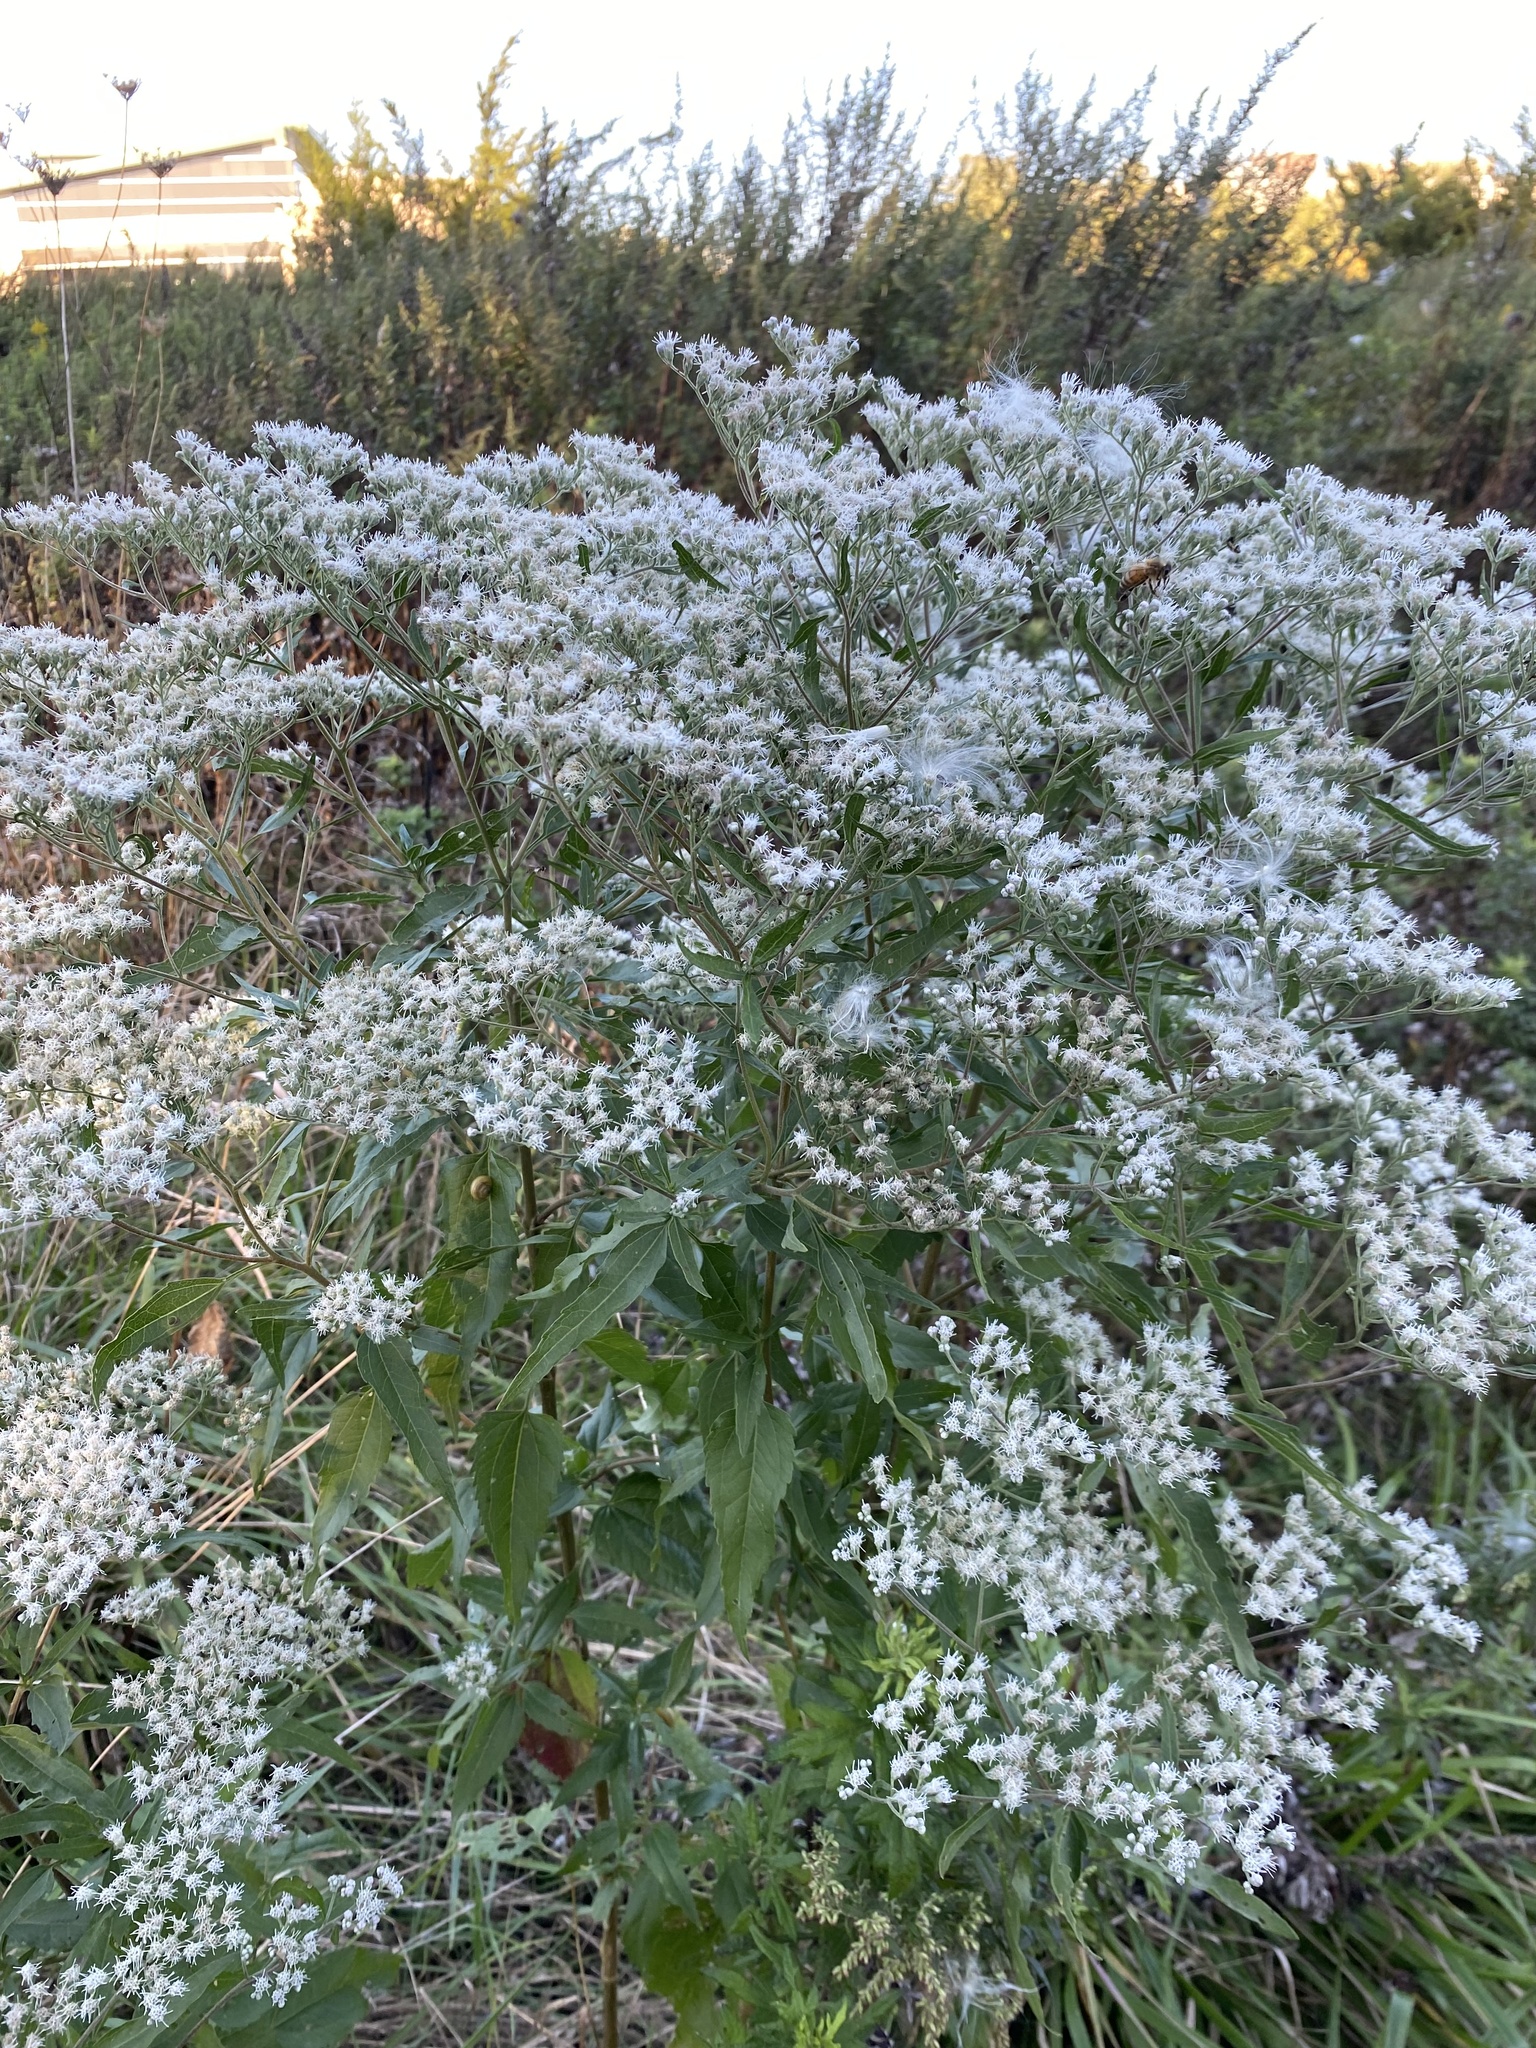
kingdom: Plantae
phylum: Tracheophyta
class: Magnoliopsida
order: Asterales
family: Asteraceae
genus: Eupatorium
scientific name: Eupatorium serotinum
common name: Late boneset
